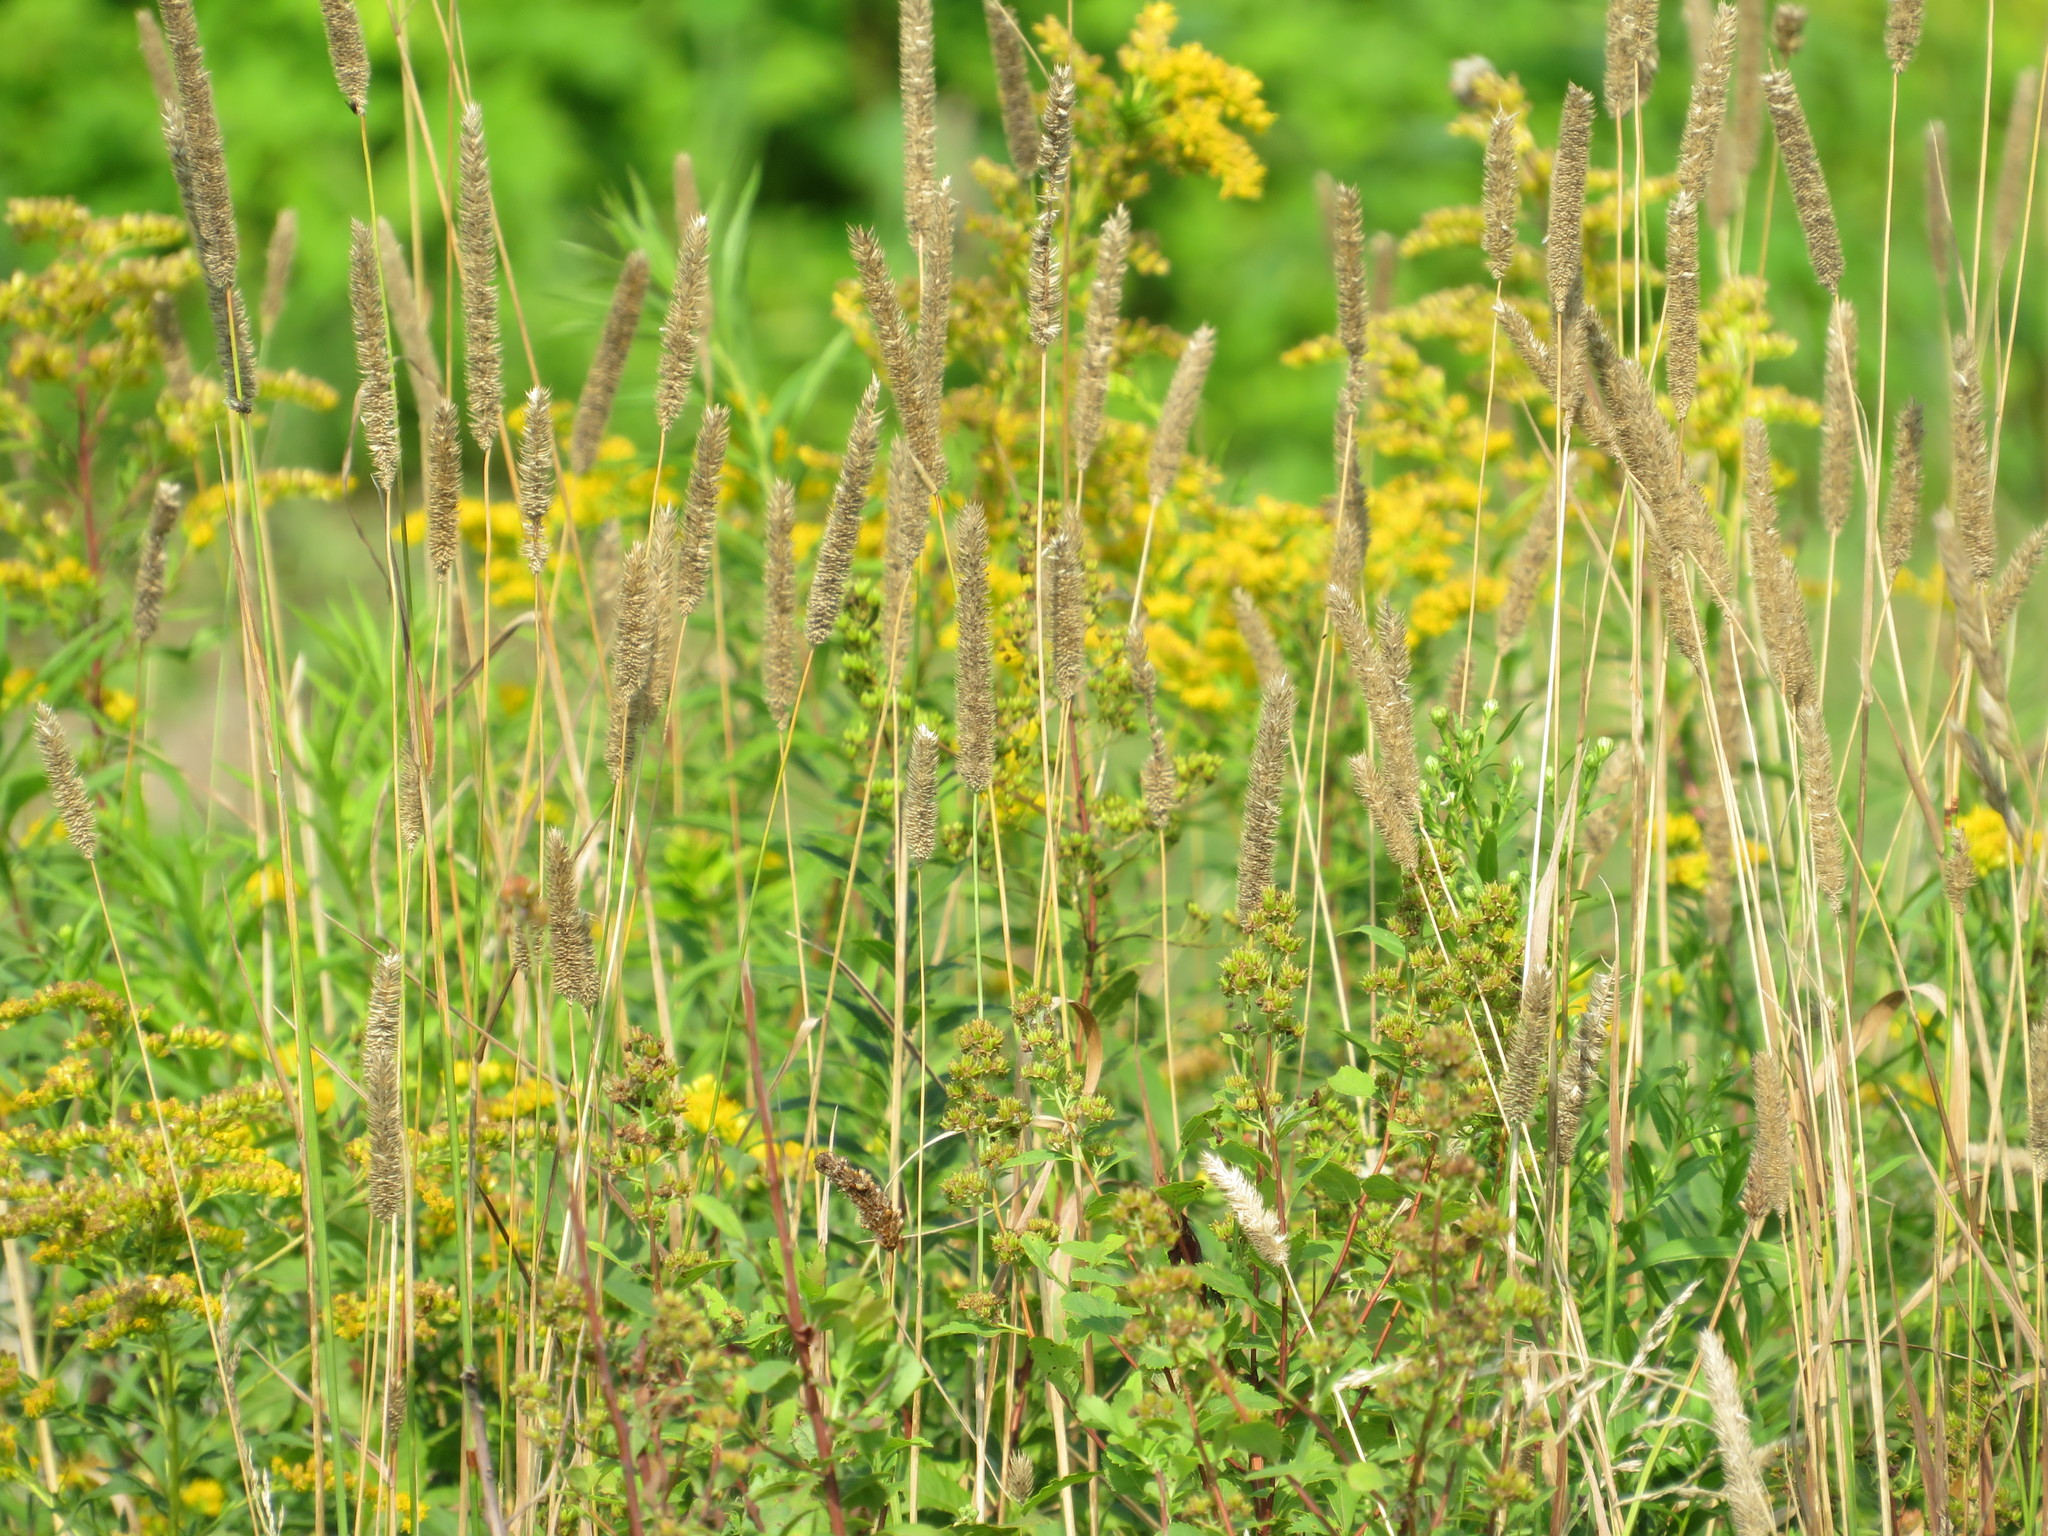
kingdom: Plantae
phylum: Tracheophyta
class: Liliopsida
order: Poales
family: Poaceae
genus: Phleum
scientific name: Phleum pratense
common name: Timothy grass
